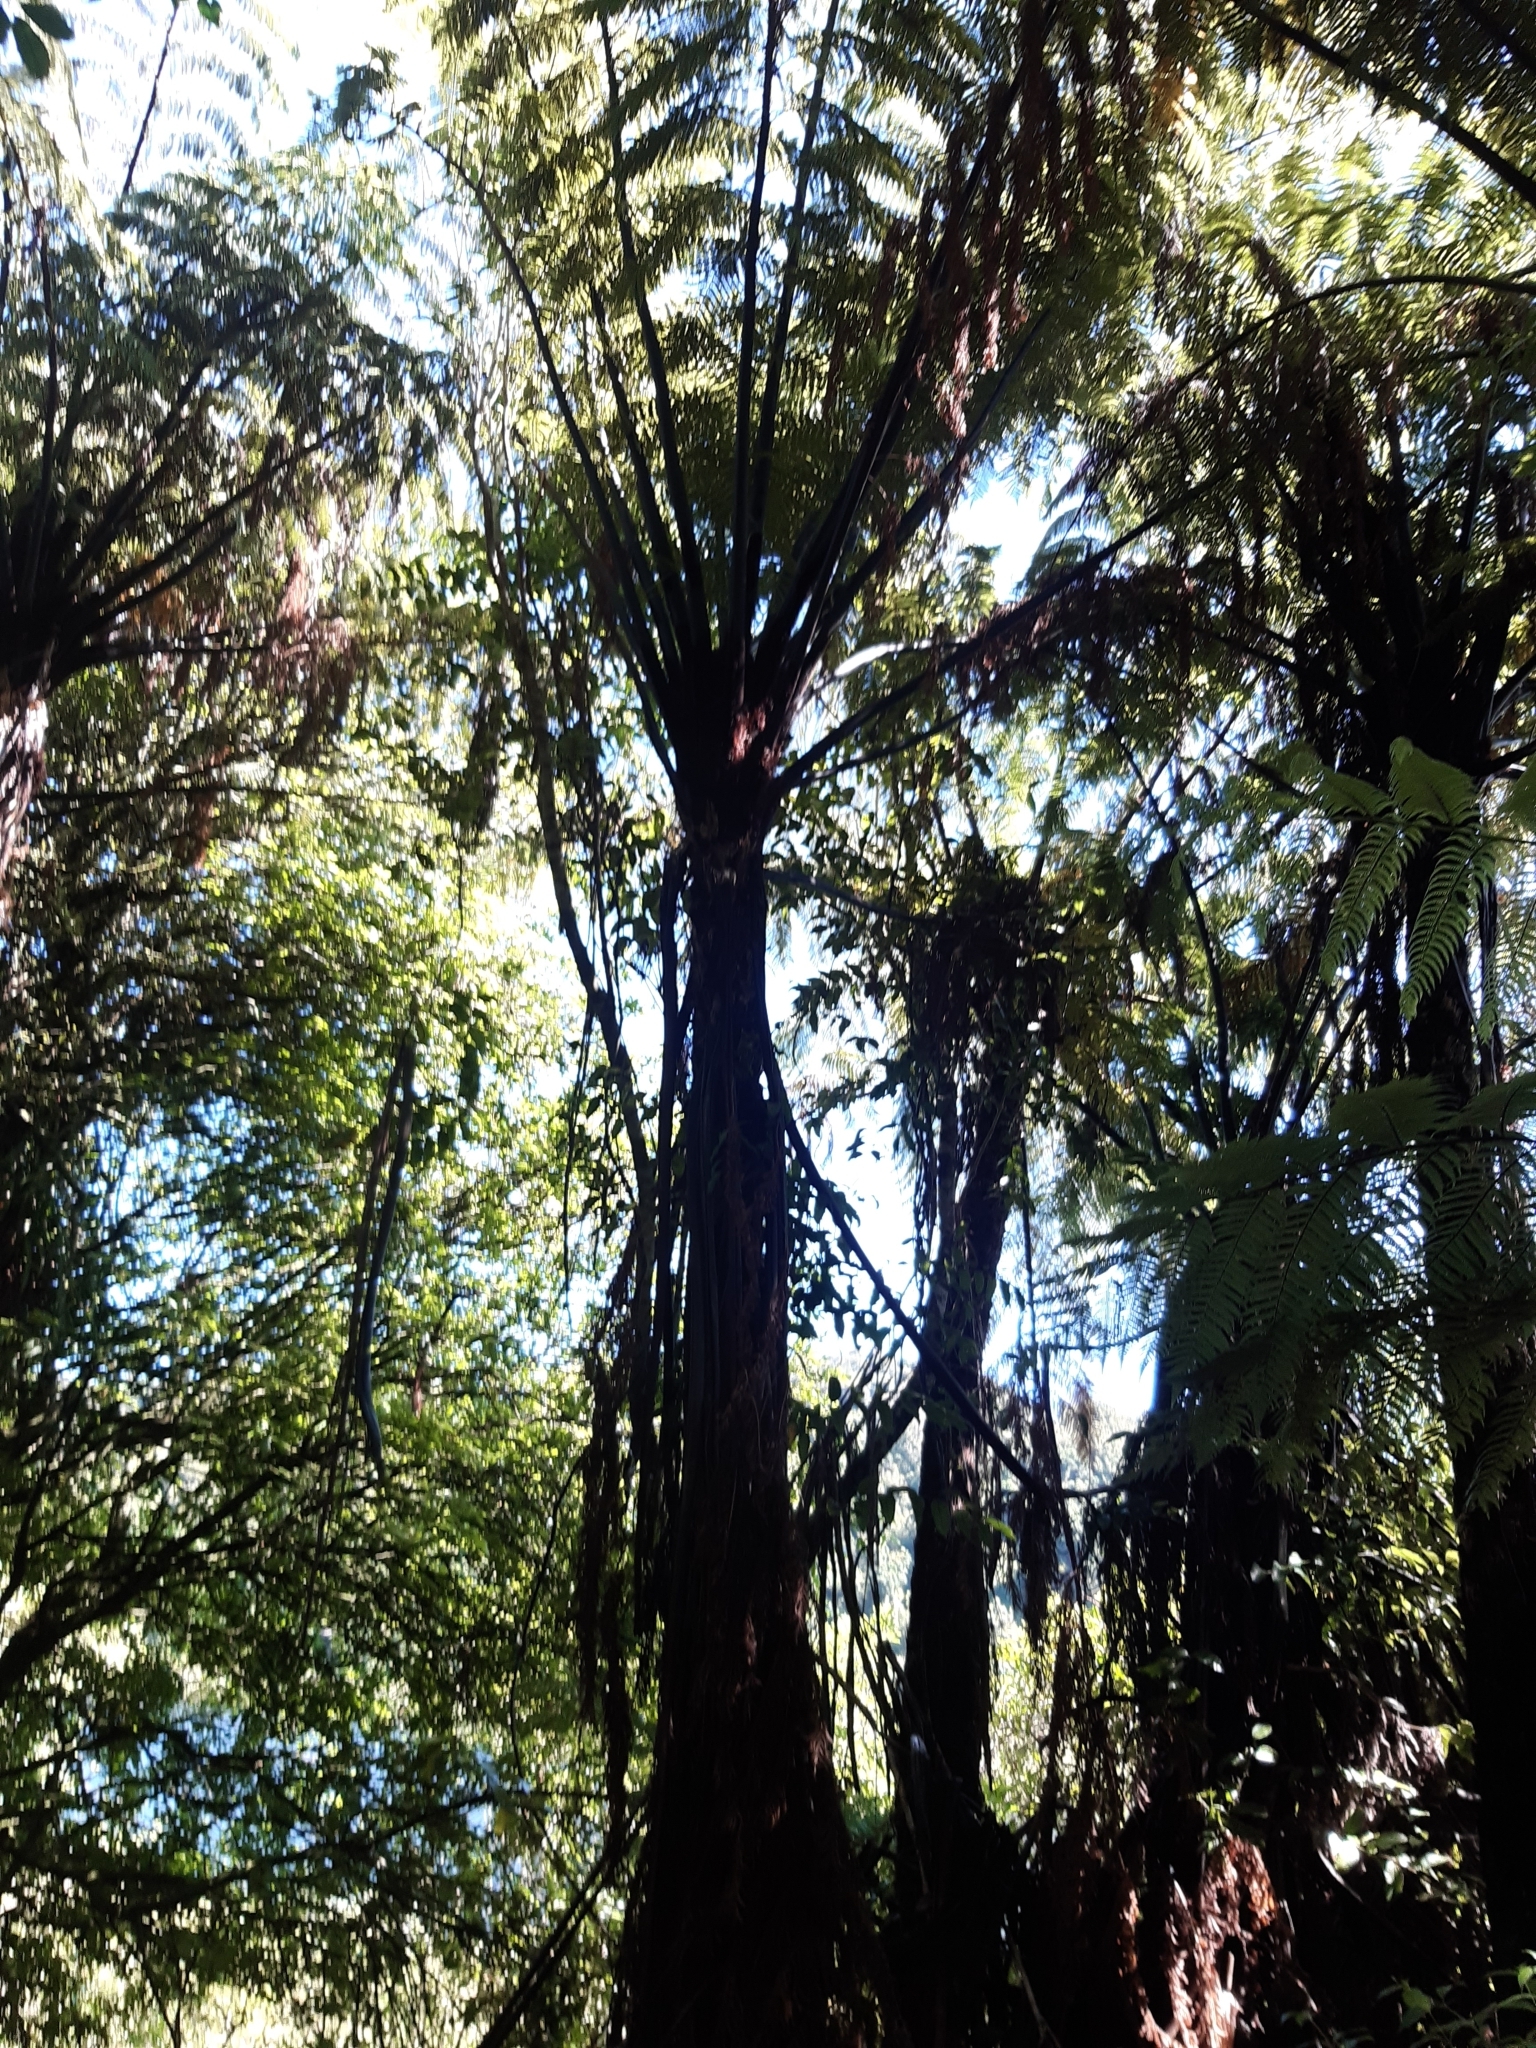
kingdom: Plantae
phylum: Tracheophyta
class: Polypodiopsida
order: Cyatheales
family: Cyatheaceae
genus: Sphaeropteris
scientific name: Sphaeropteris medullaris
